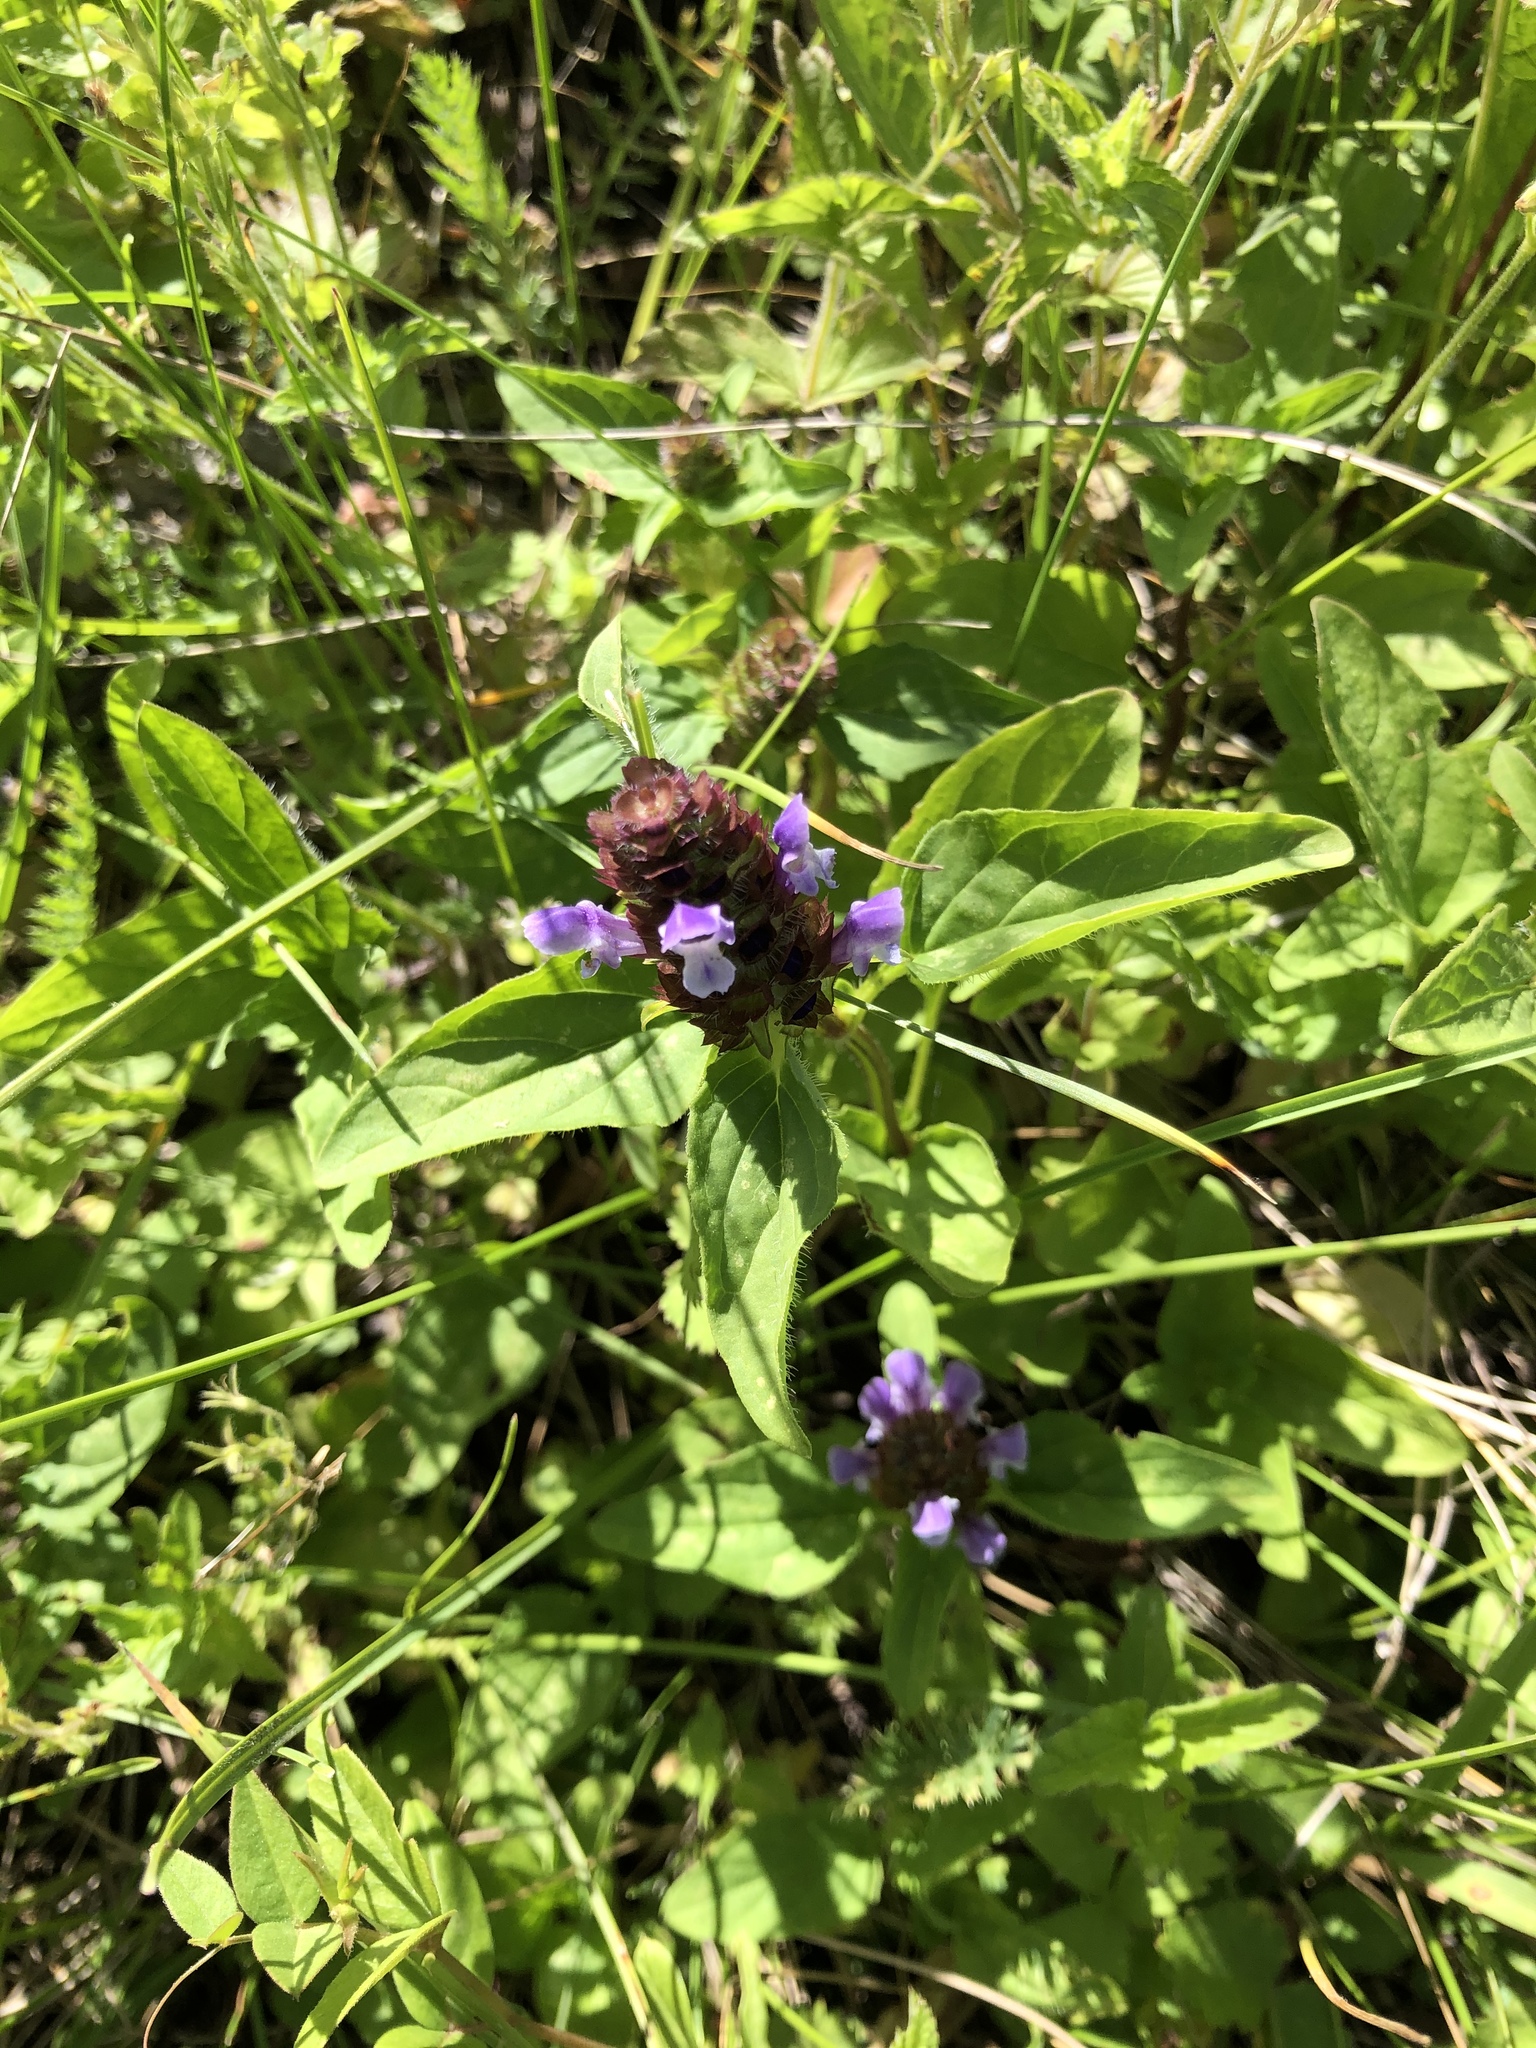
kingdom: Plantae
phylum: Tracheophyta
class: Magnoliopsida
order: Lamiales
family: Lamiaceae
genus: Prunella
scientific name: Prunella vulgaris
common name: Heal-all
